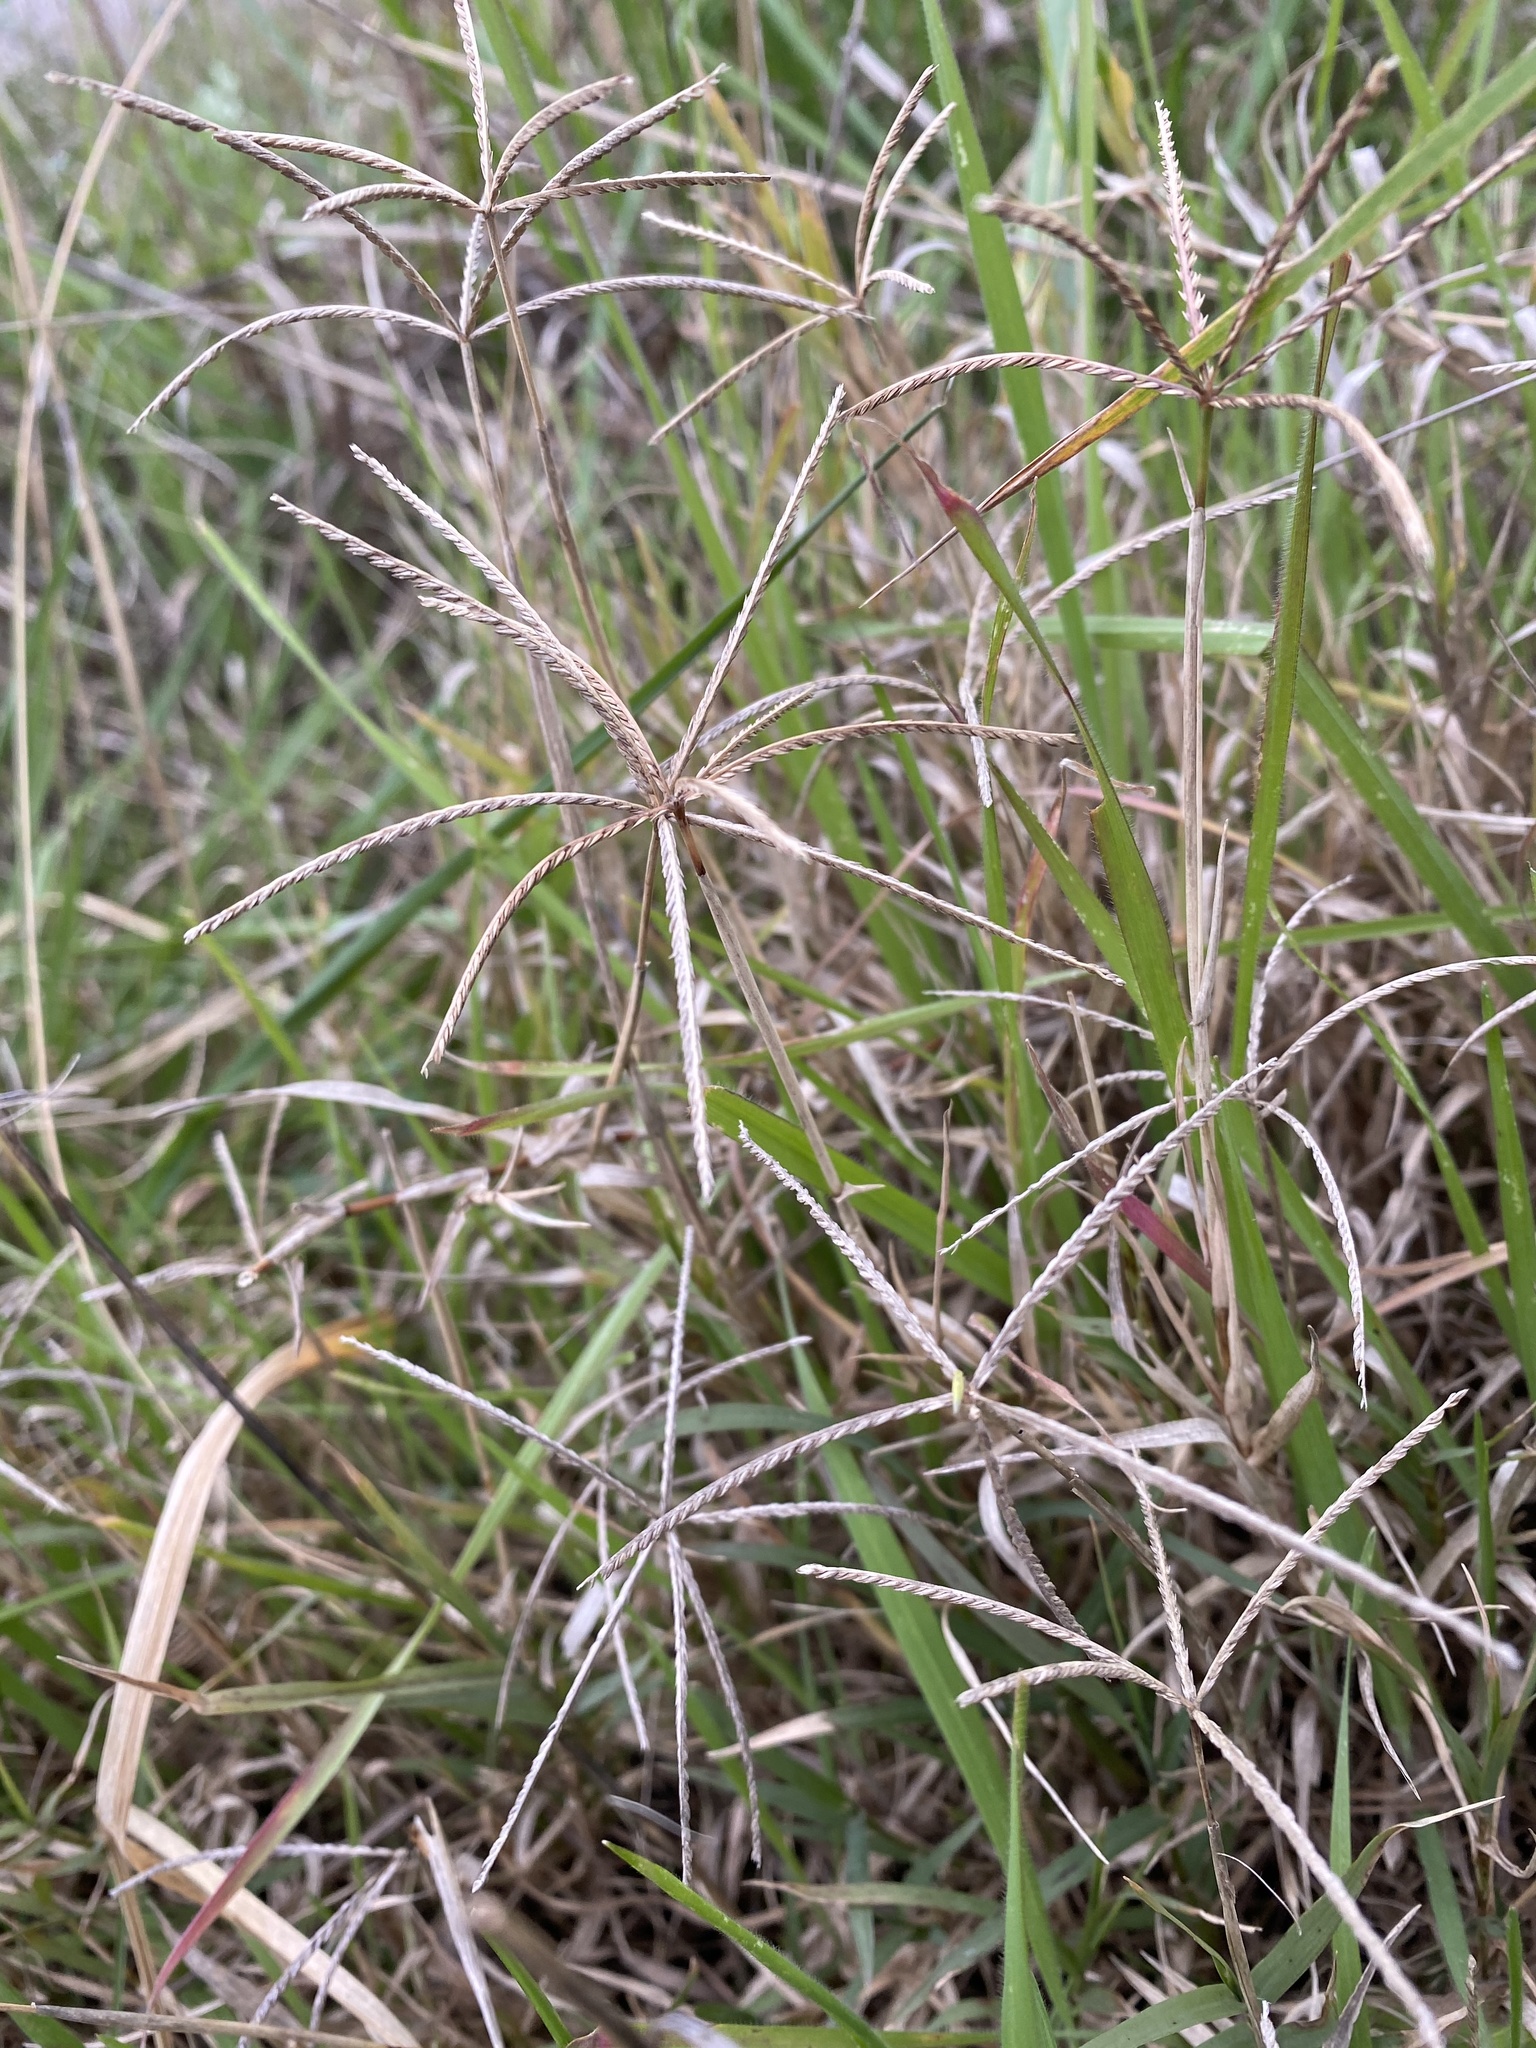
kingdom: Plantae
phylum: Tracheophyta
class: Liliopsida
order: Poales
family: Poaceae
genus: Cynodon
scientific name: Cynodon dactylon
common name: Bermuda grass
